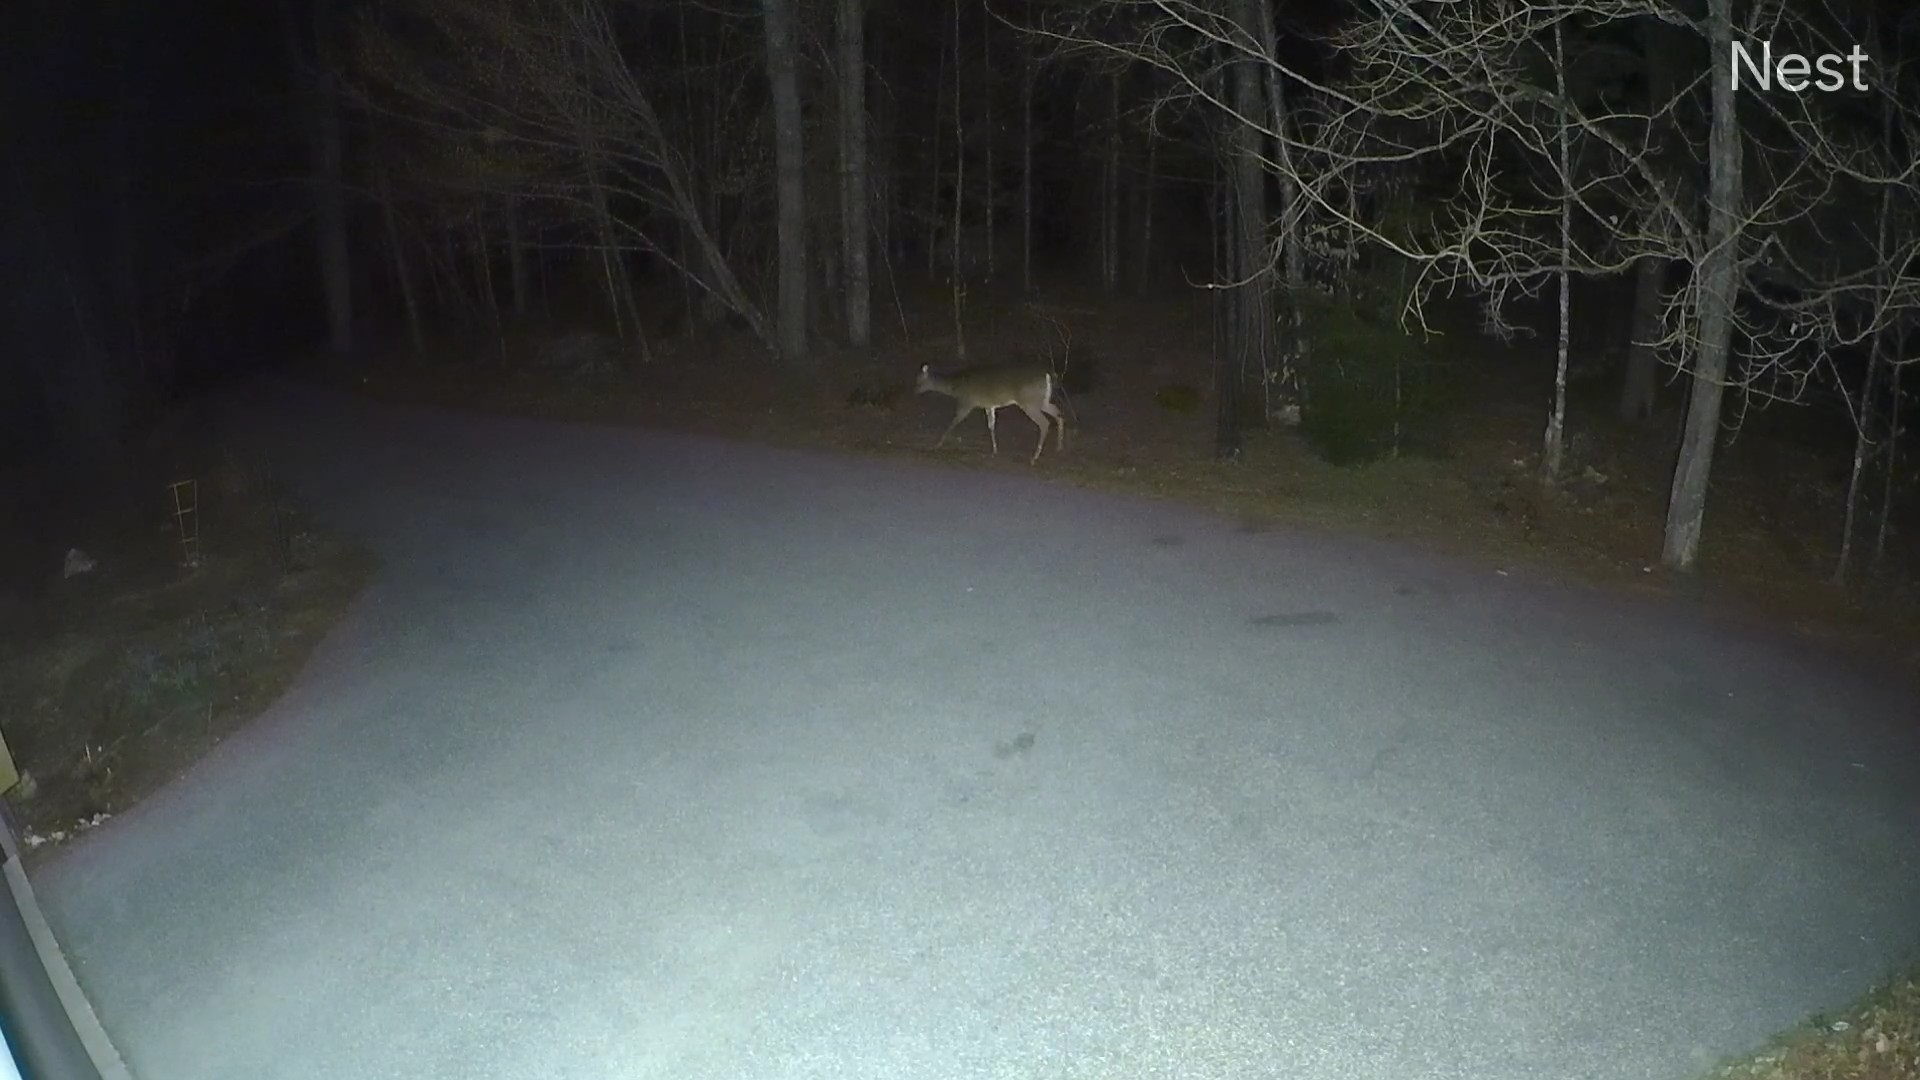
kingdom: Animalia
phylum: Chordata
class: Mammalia
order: Artiodactyla
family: Cervidae
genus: Odocoileus
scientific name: Odocoileus virginianus
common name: White-tailed deer
